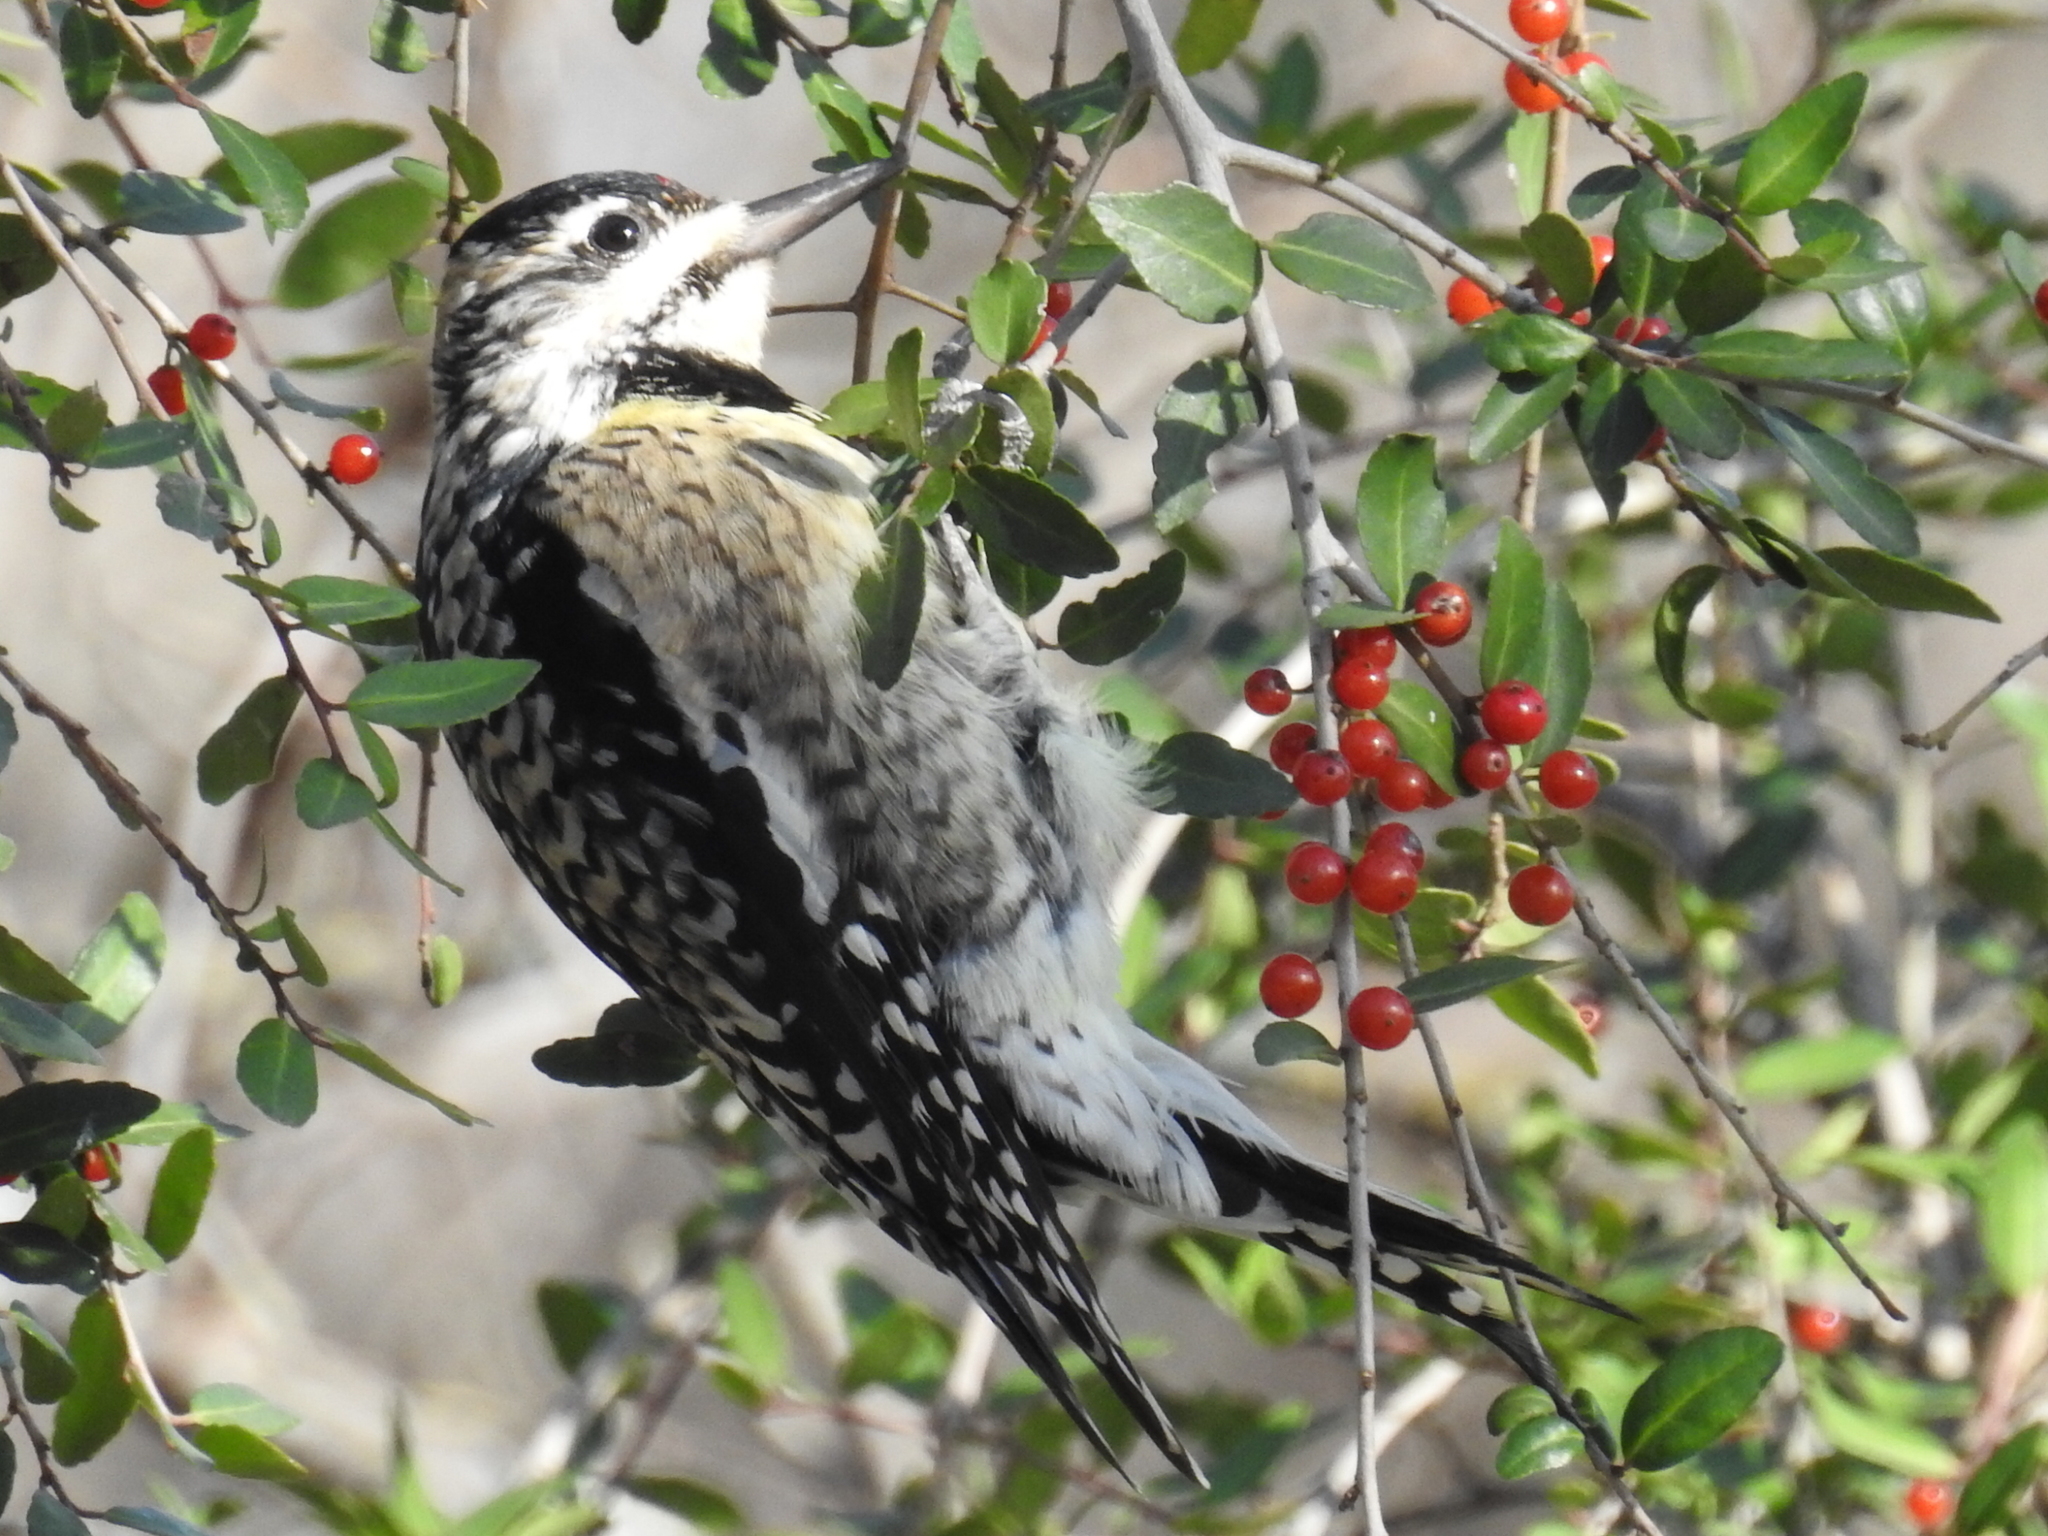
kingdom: Animalia
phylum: Chordata
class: Aves
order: Piciformes
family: Picidae
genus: Sphyrapicus
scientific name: Sphyrapicus varius
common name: Yellow-bellied sapsucker
